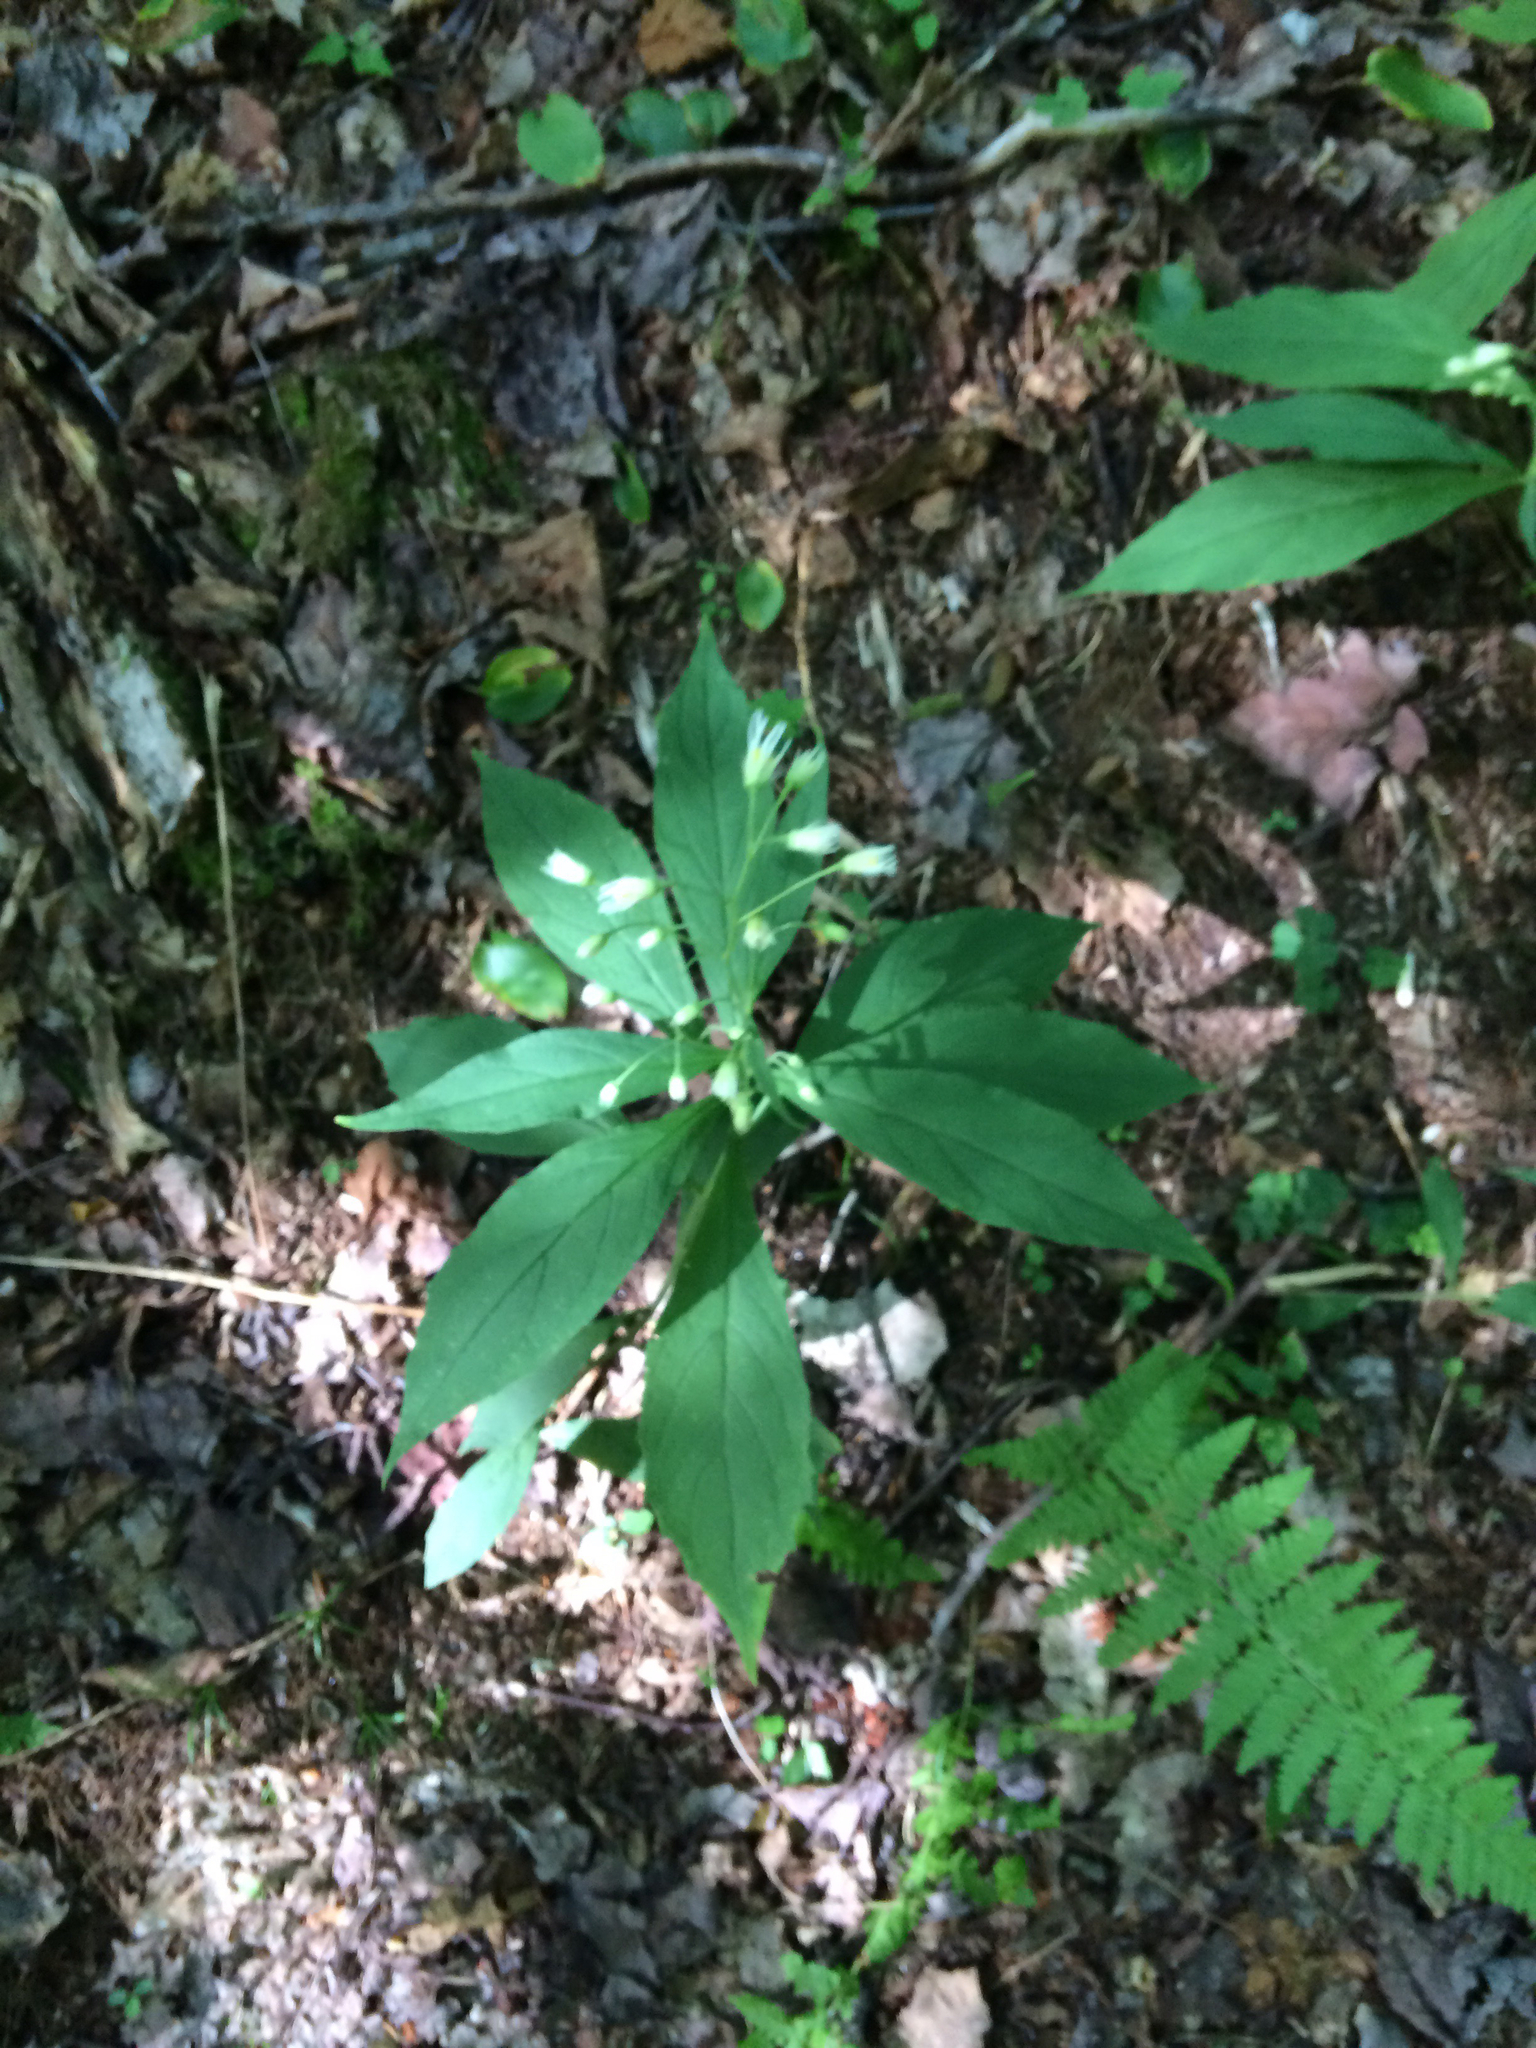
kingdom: Plantae
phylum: Tracheophyta
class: Magnoliopsida
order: Asterales
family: Asteraceae
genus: Oclemena
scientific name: Oclemena acuminata
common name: Mountain aster
